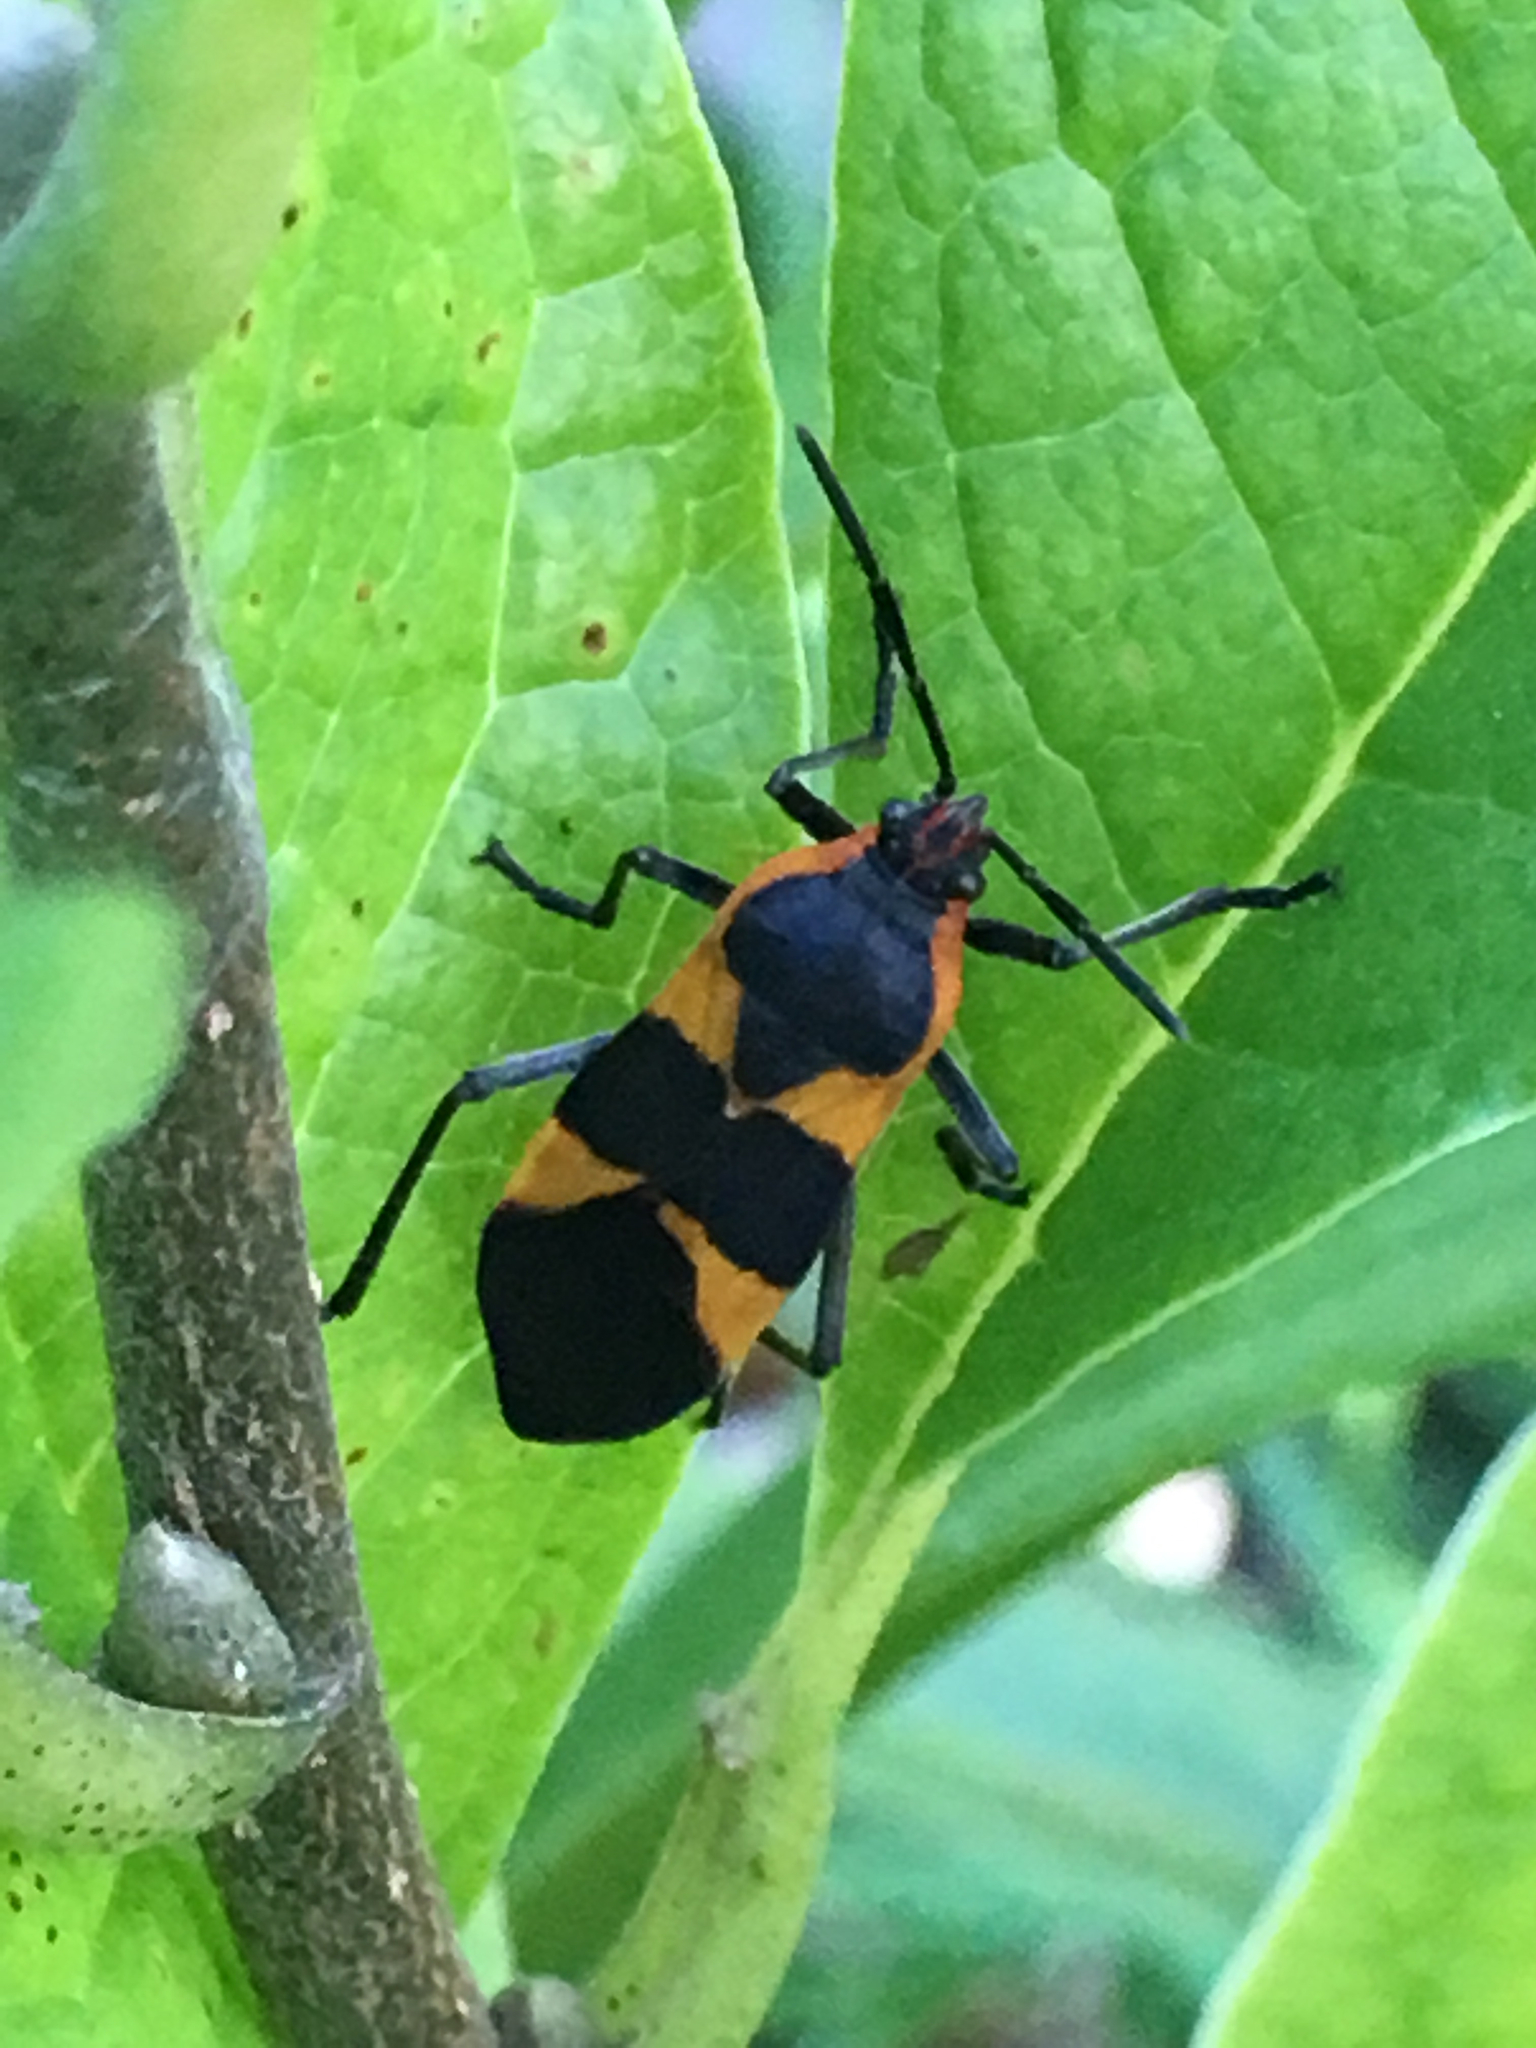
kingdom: Animalia
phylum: Arthropoda
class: Insecta
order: Hemiptera
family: Lygaeidae
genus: Oncopeltus
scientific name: Oncopeltus fasciatus
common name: Large milkweed bug
